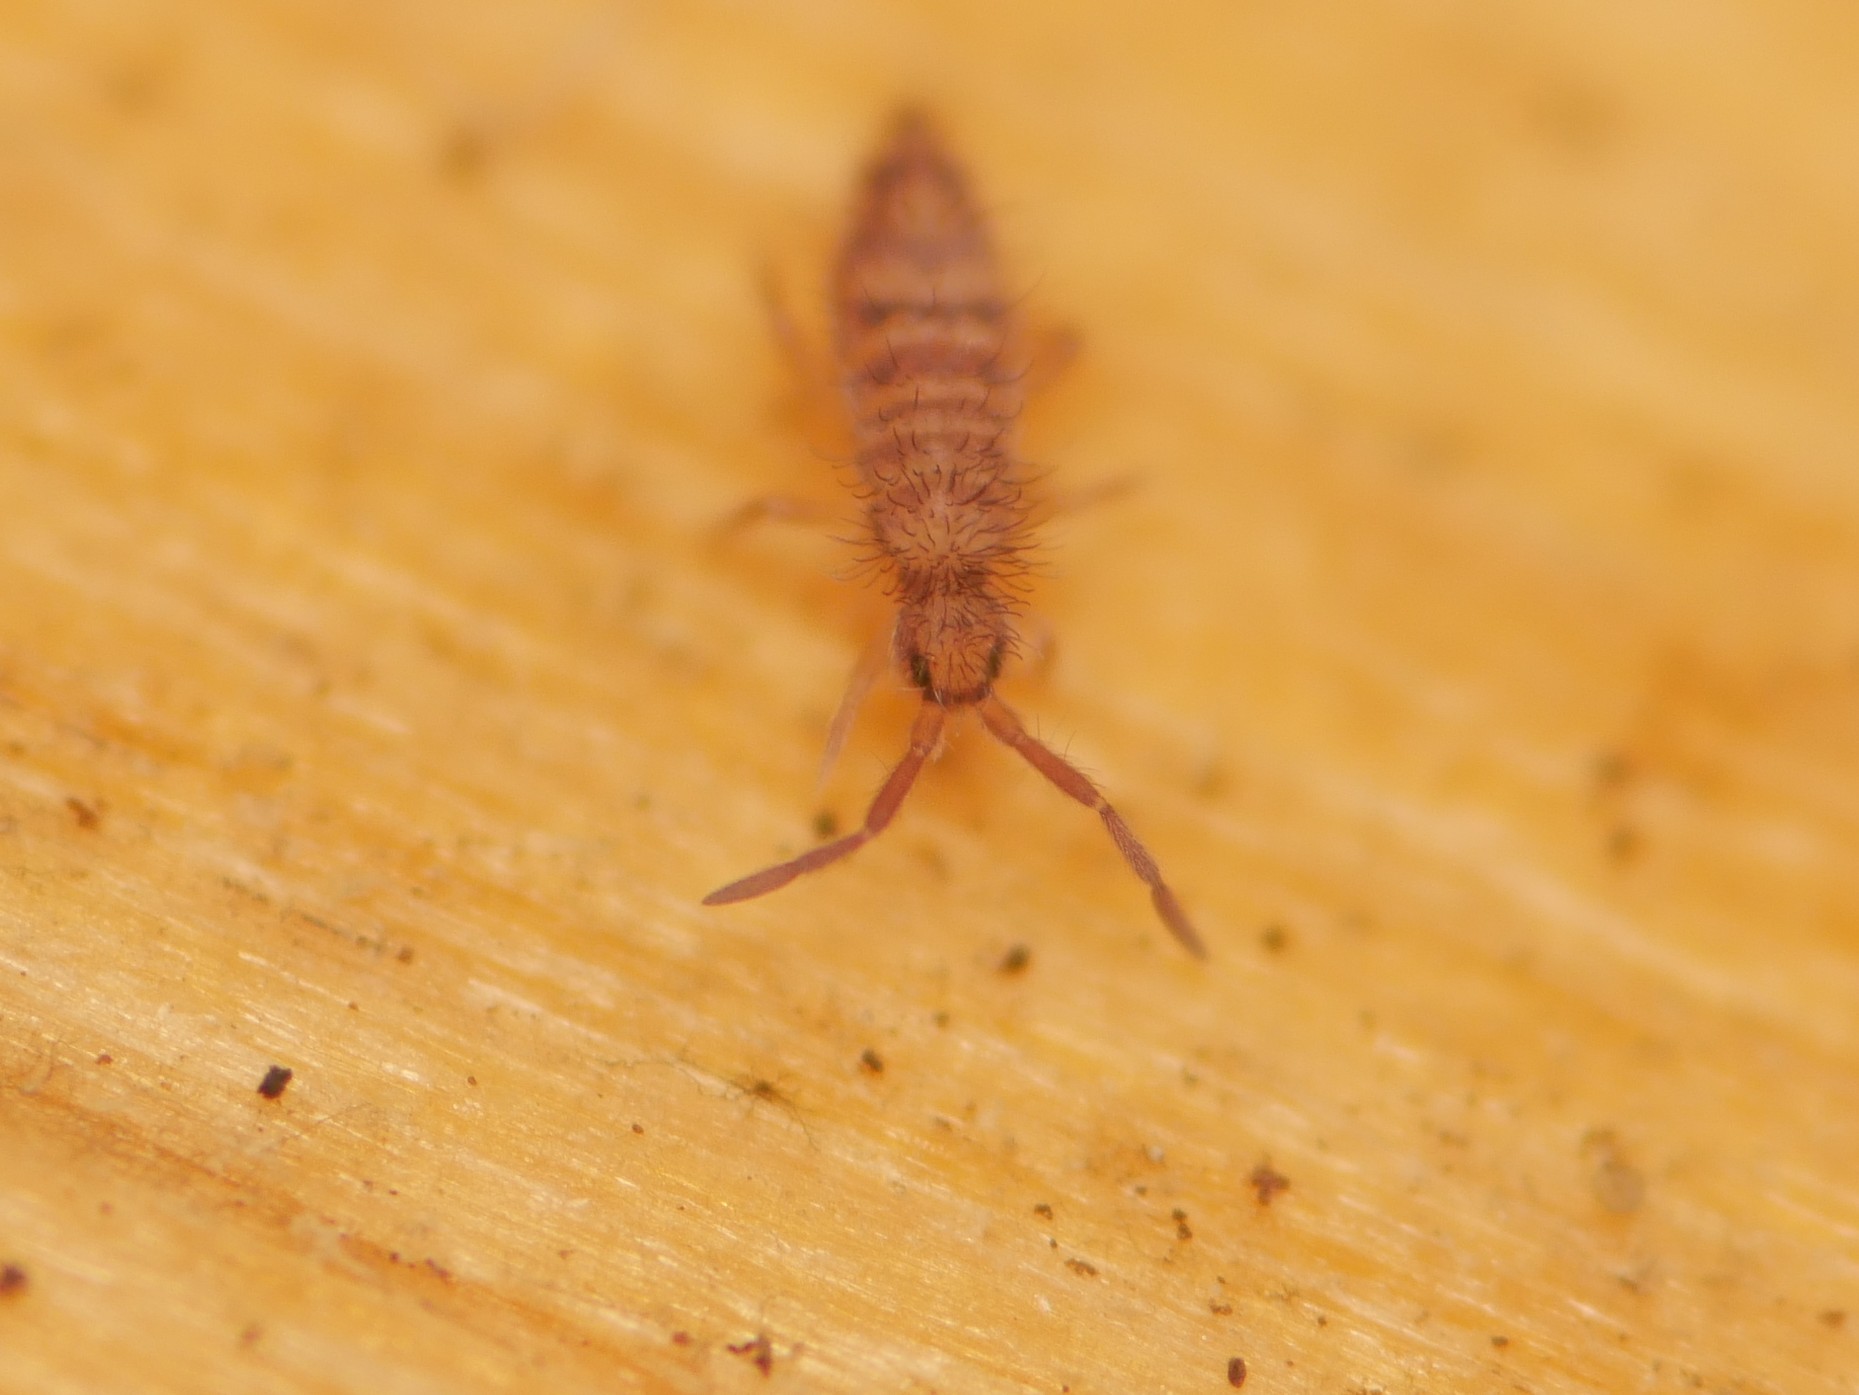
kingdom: Animalia
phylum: Arthropoda
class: Collembola
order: Entomobryomorpha
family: Entomobryidae
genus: Entomobrya
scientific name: Entomobrya multifasciata
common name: Springtail
